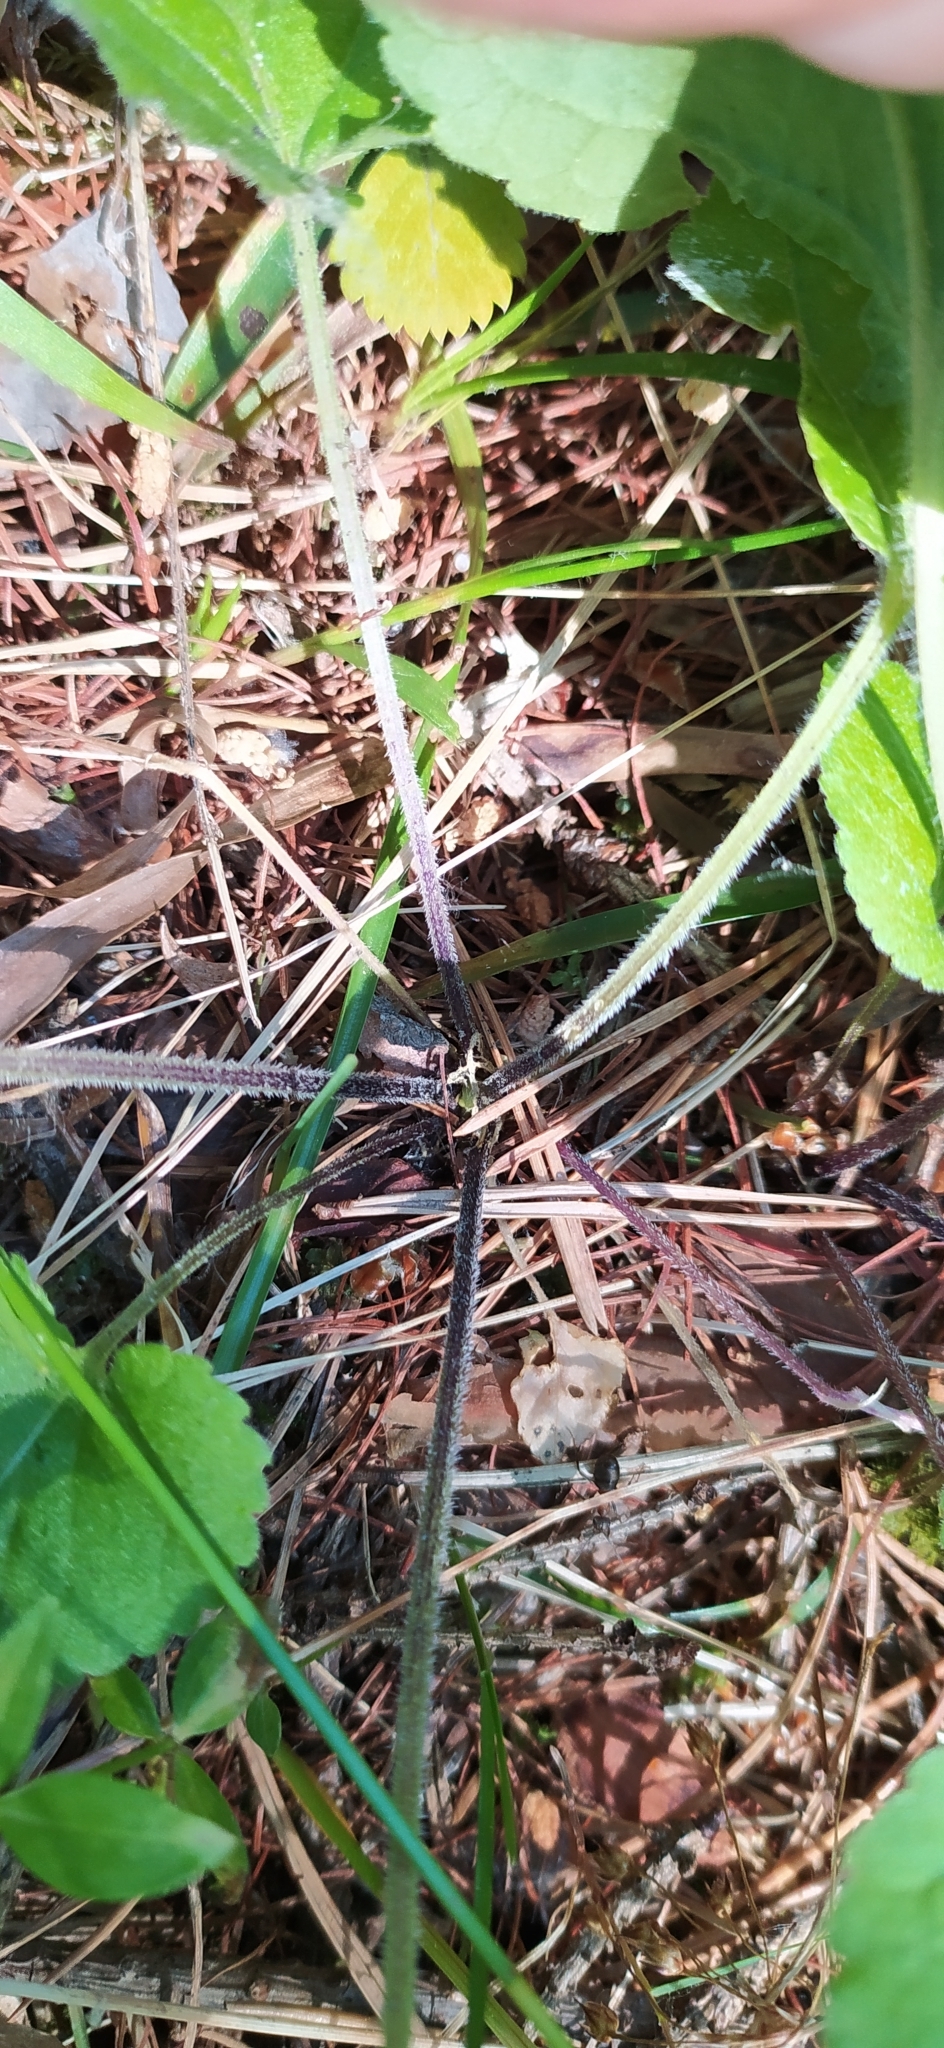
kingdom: Plantae
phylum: Tracheophyta
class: Magnoliopsida
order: Malpighiales
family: Violaceae
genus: Viola
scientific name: Viola collina
